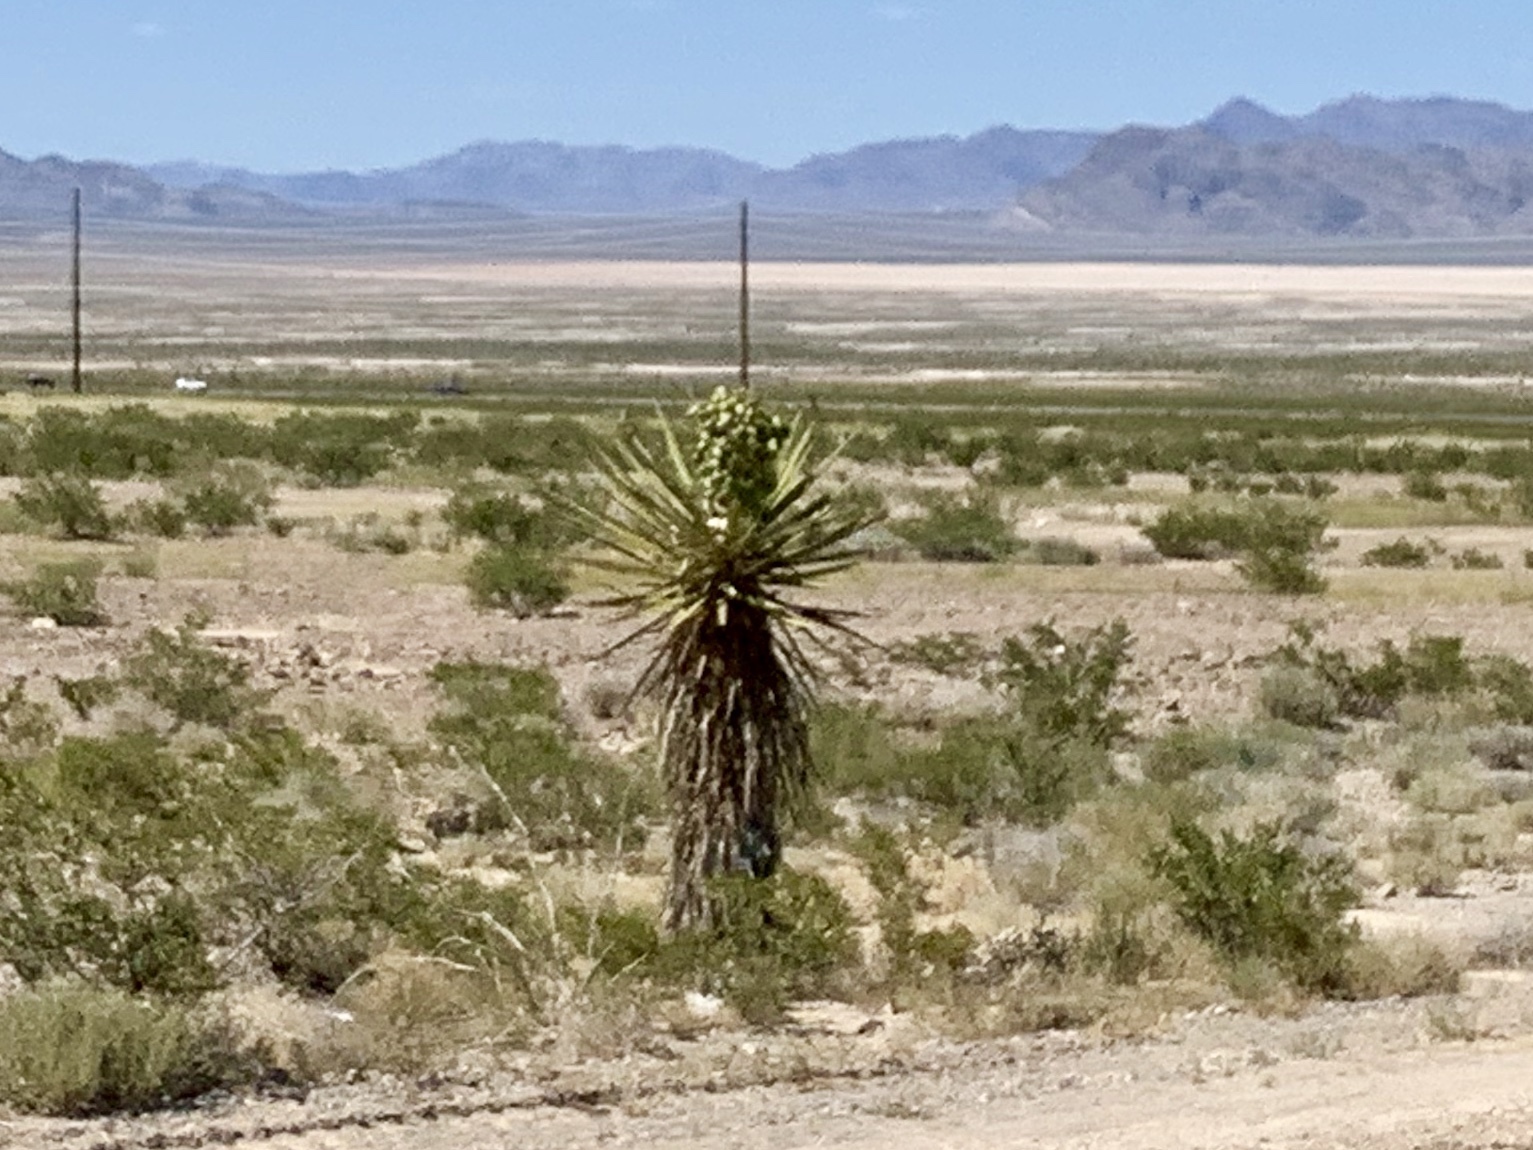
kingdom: Plantae
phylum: Tracheophyta
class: Liliopsida
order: Asparagales
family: Asparagaceae
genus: Yucca
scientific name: Yucca schidigera
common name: Mojave yucca
